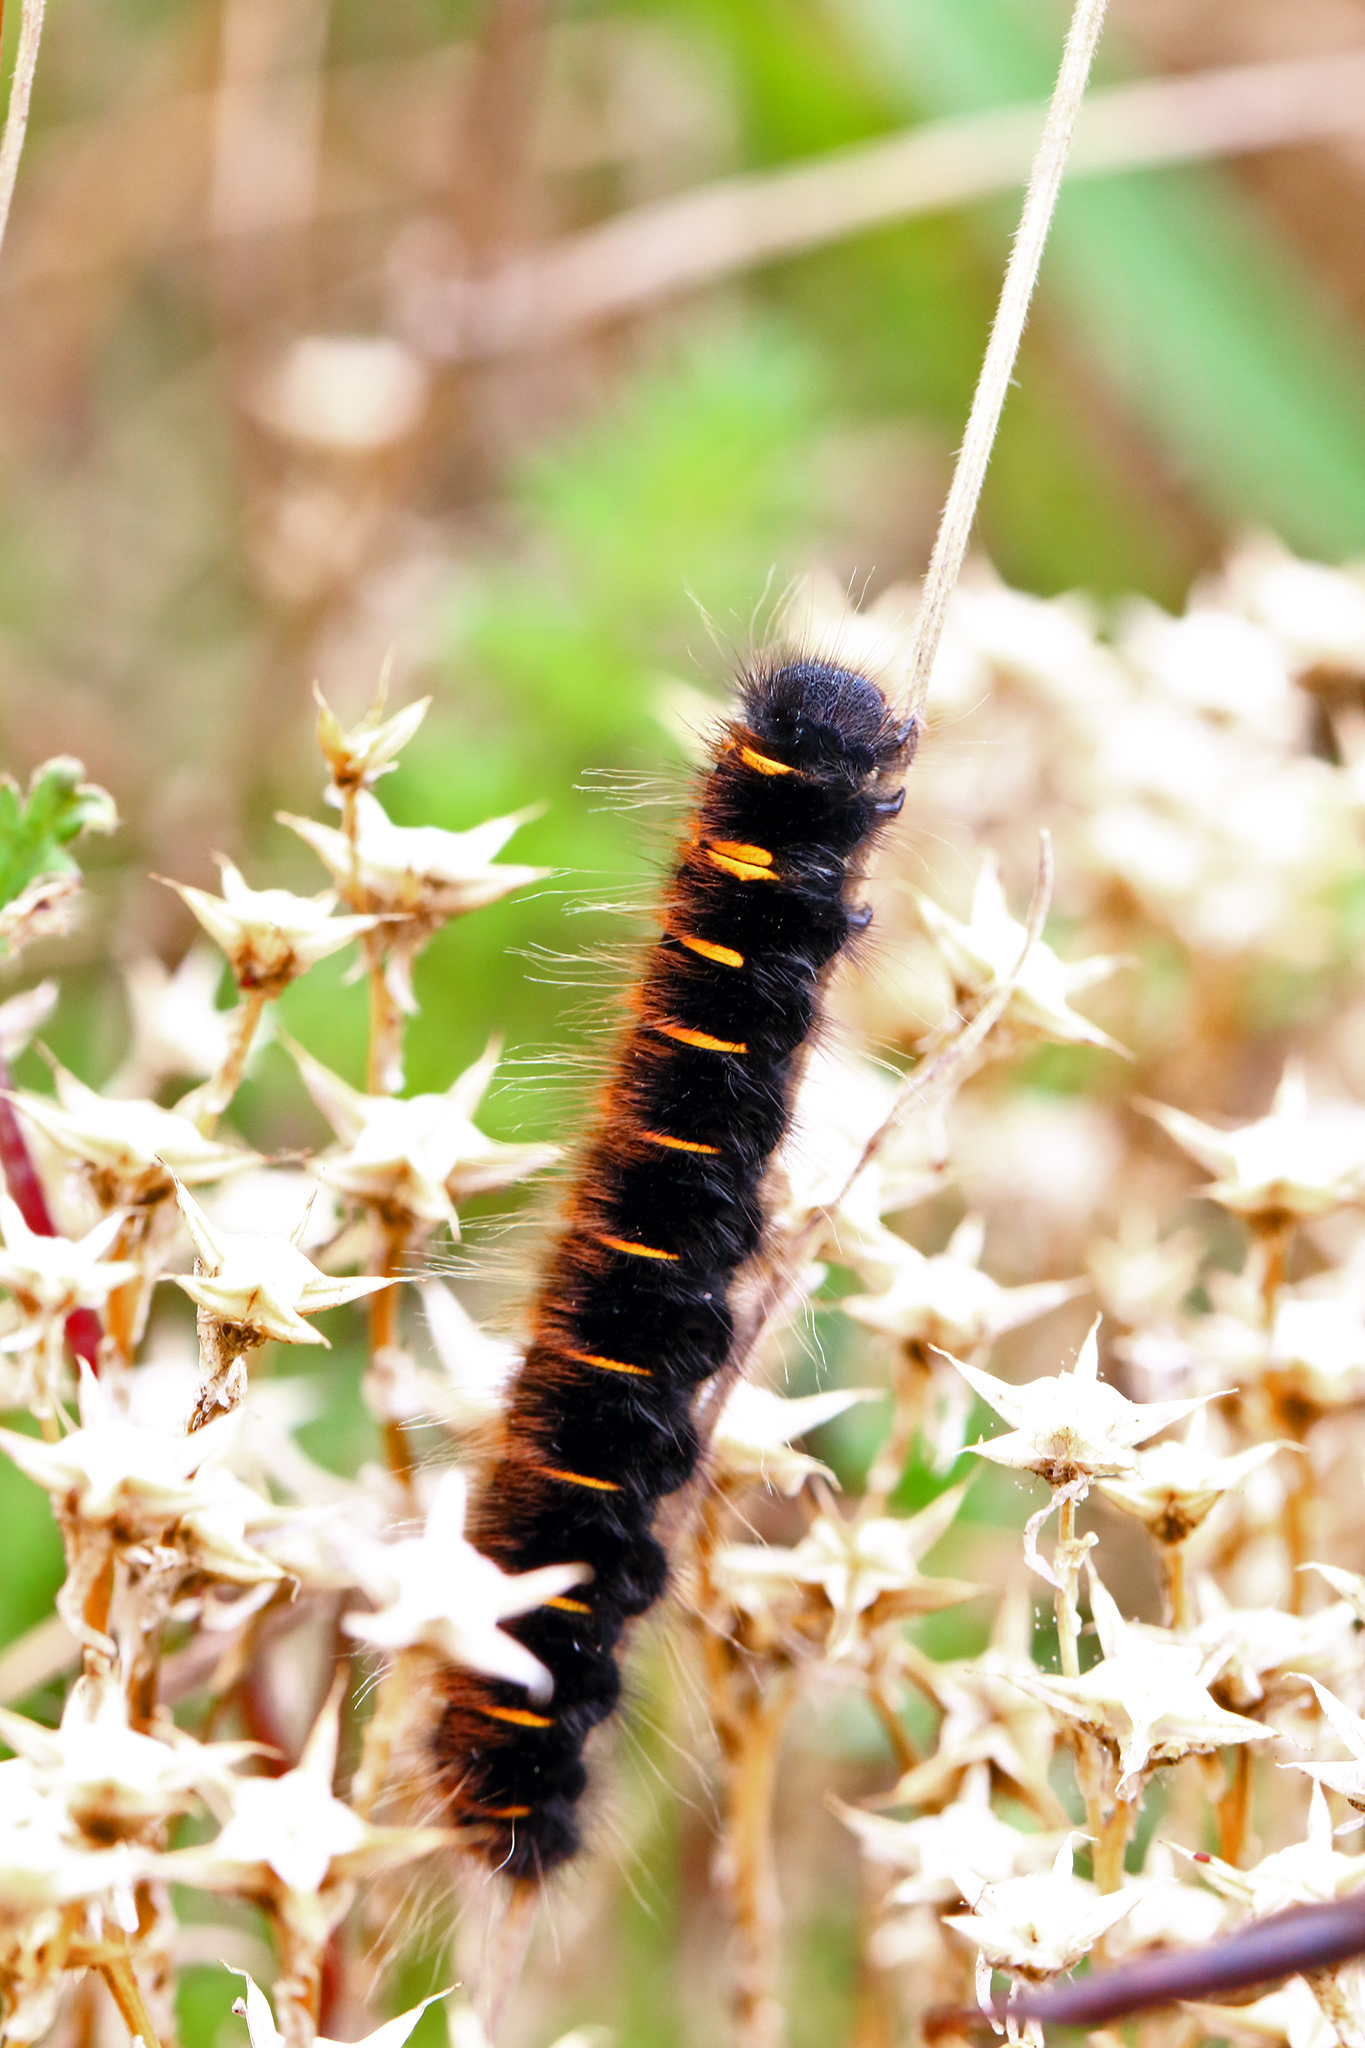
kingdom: Animalia
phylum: Arthropoda
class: Insecta
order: Lepidoptera
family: Lasiocampidae
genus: Macrothylacia
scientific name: Macrothylacia rubi
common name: Fox moth
